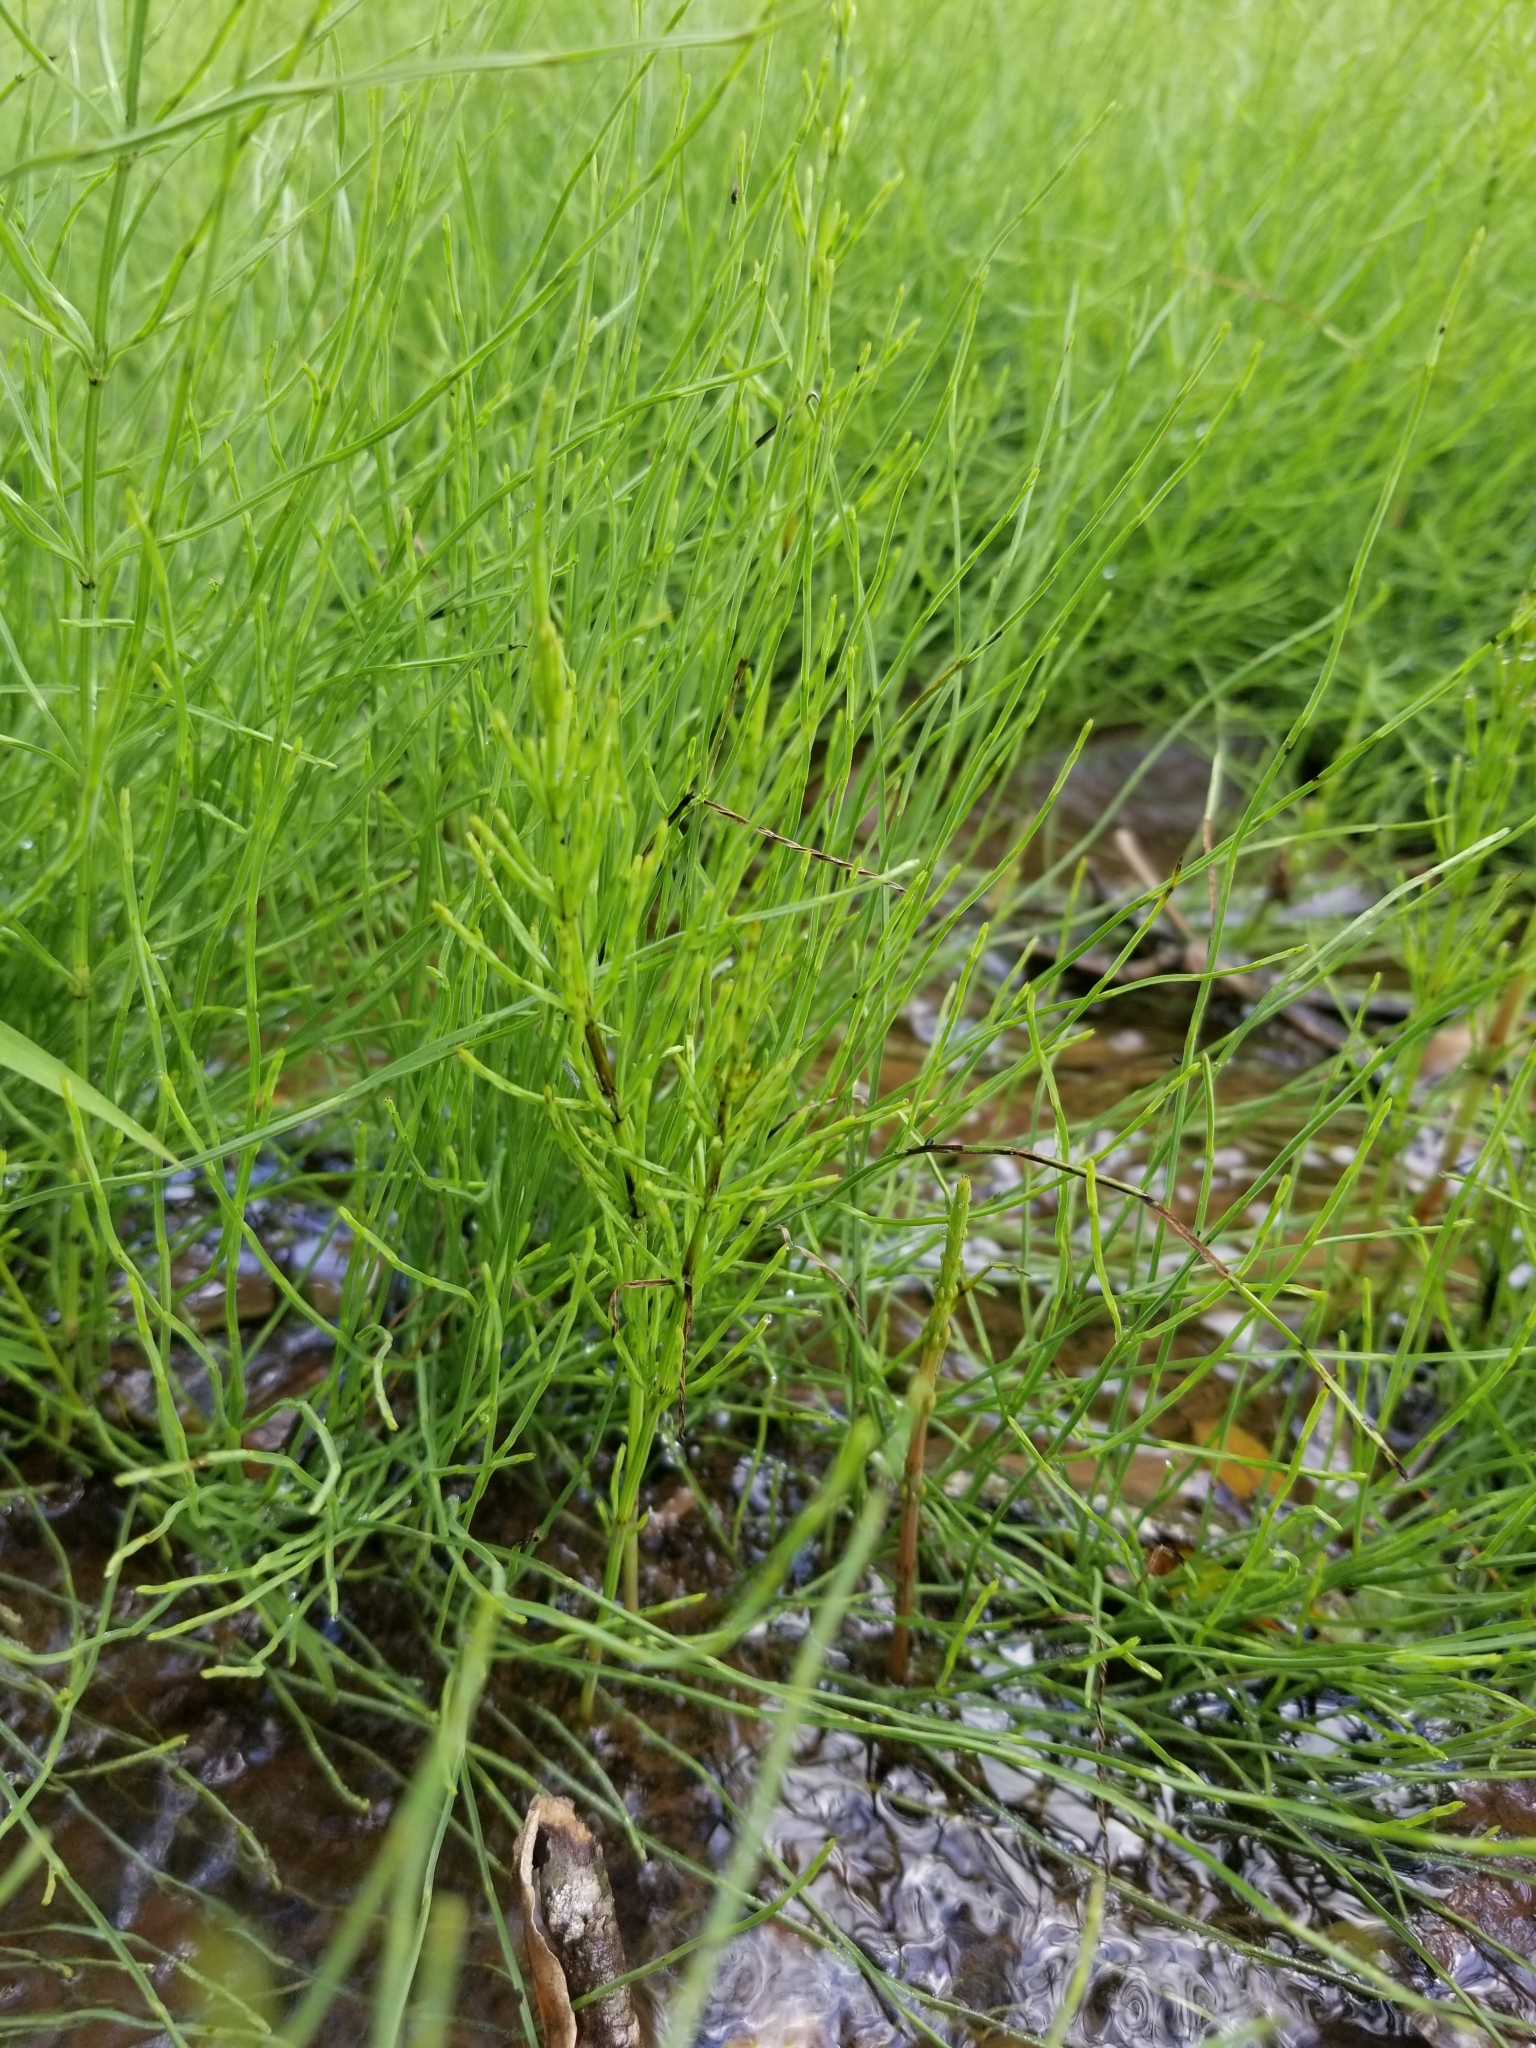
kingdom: Plantae
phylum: Tracheophyta
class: Polypodiopsida
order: Equisetales
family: Equisetaceae
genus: Equisetum
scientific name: Equisetum arvense
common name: Field horsetail
